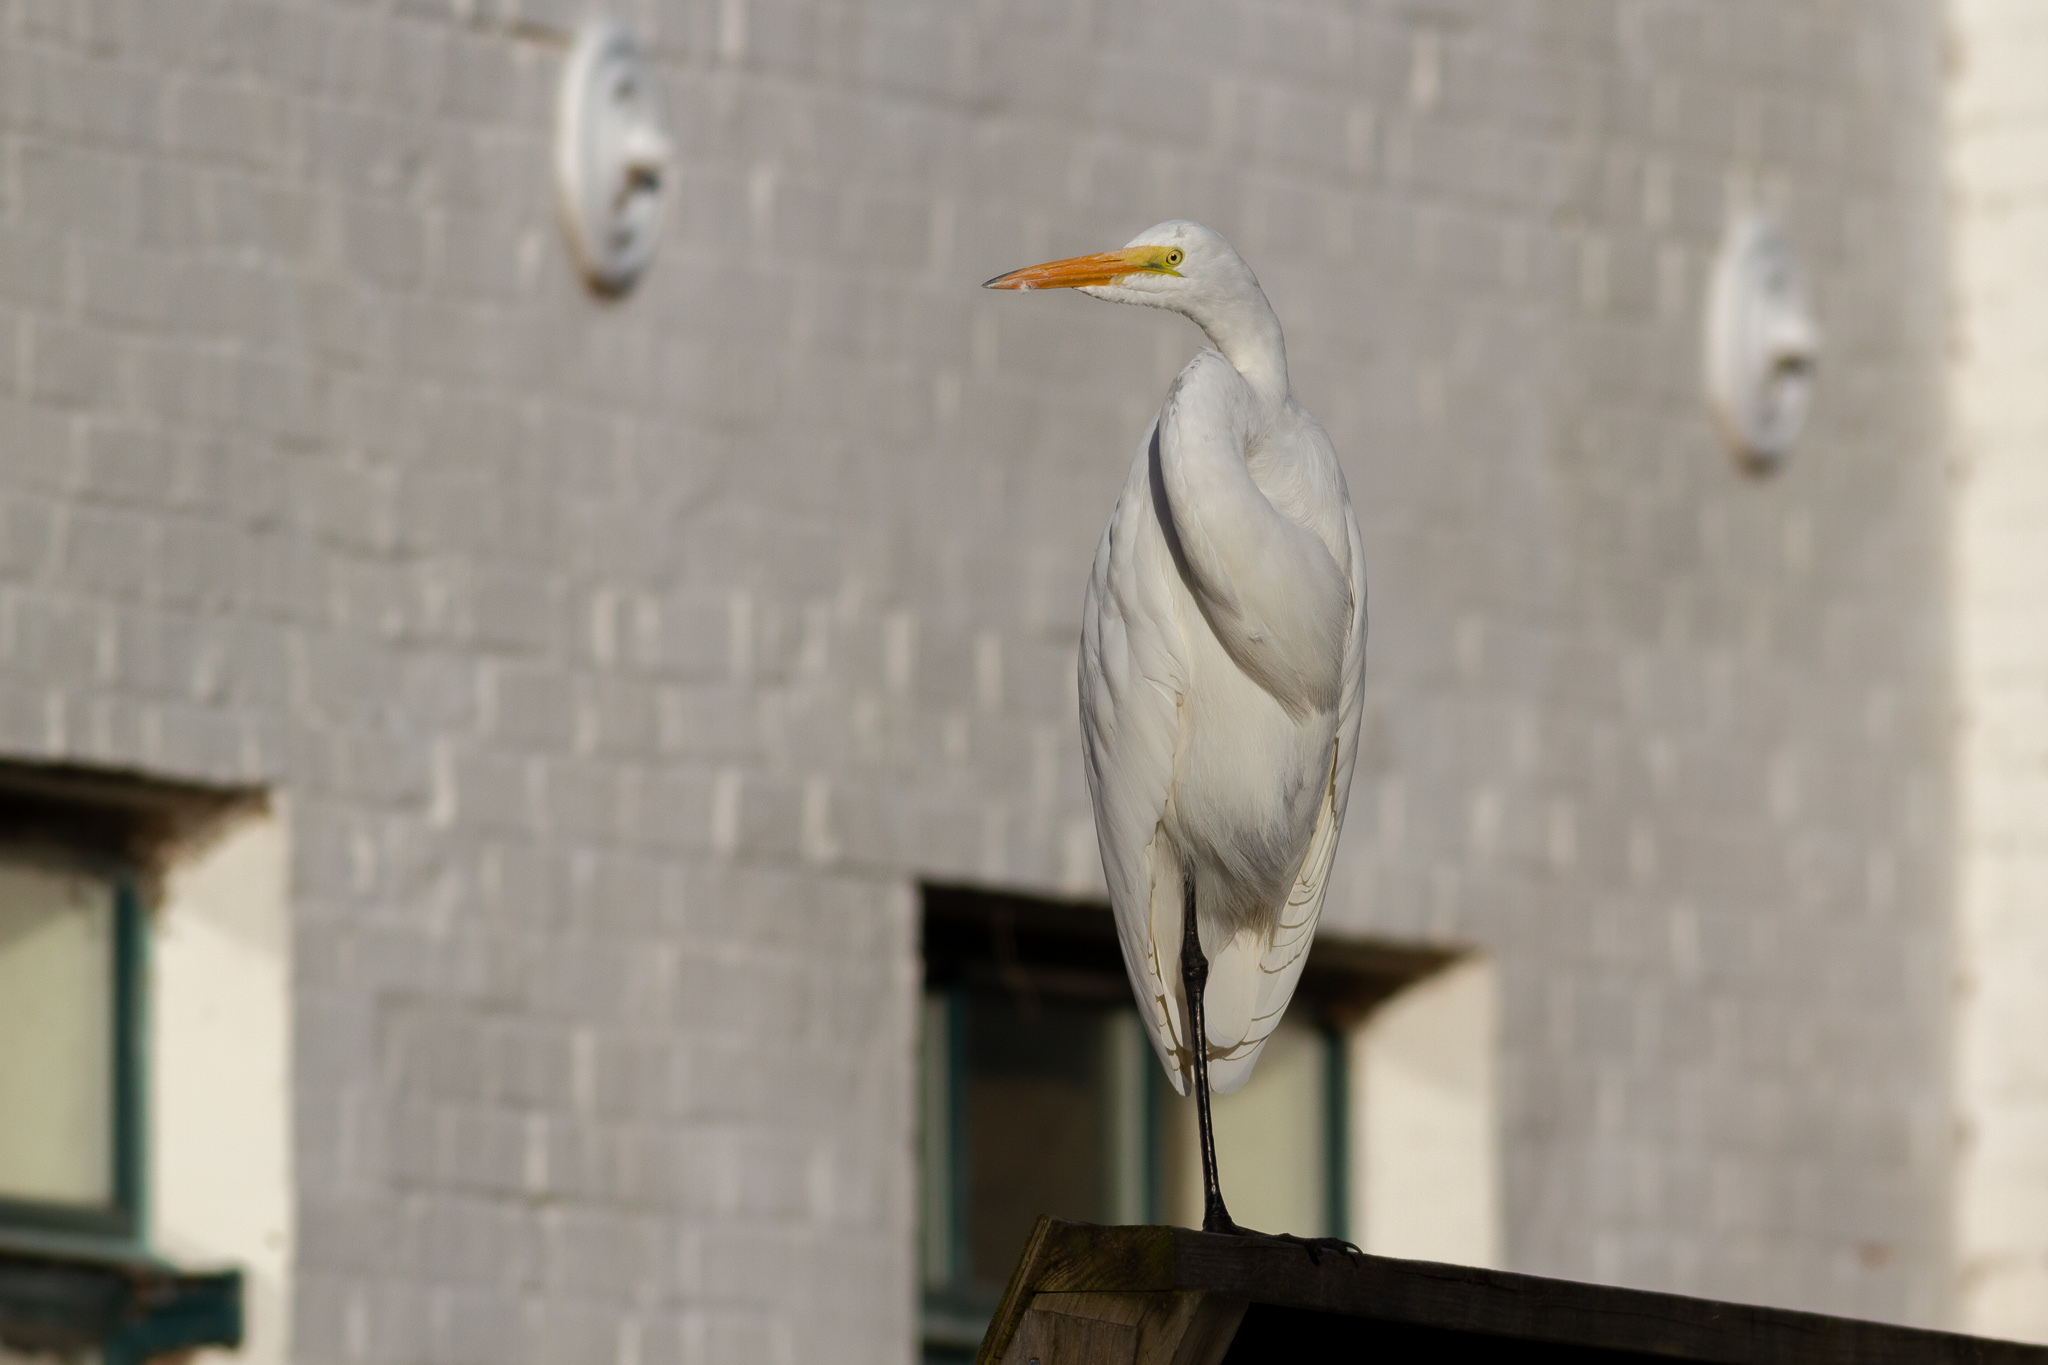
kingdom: Animalia
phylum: Chordata
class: Aves
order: Pelecaniformes
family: Ardeidae
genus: Ardea
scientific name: Ardea alba
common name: Great egret
